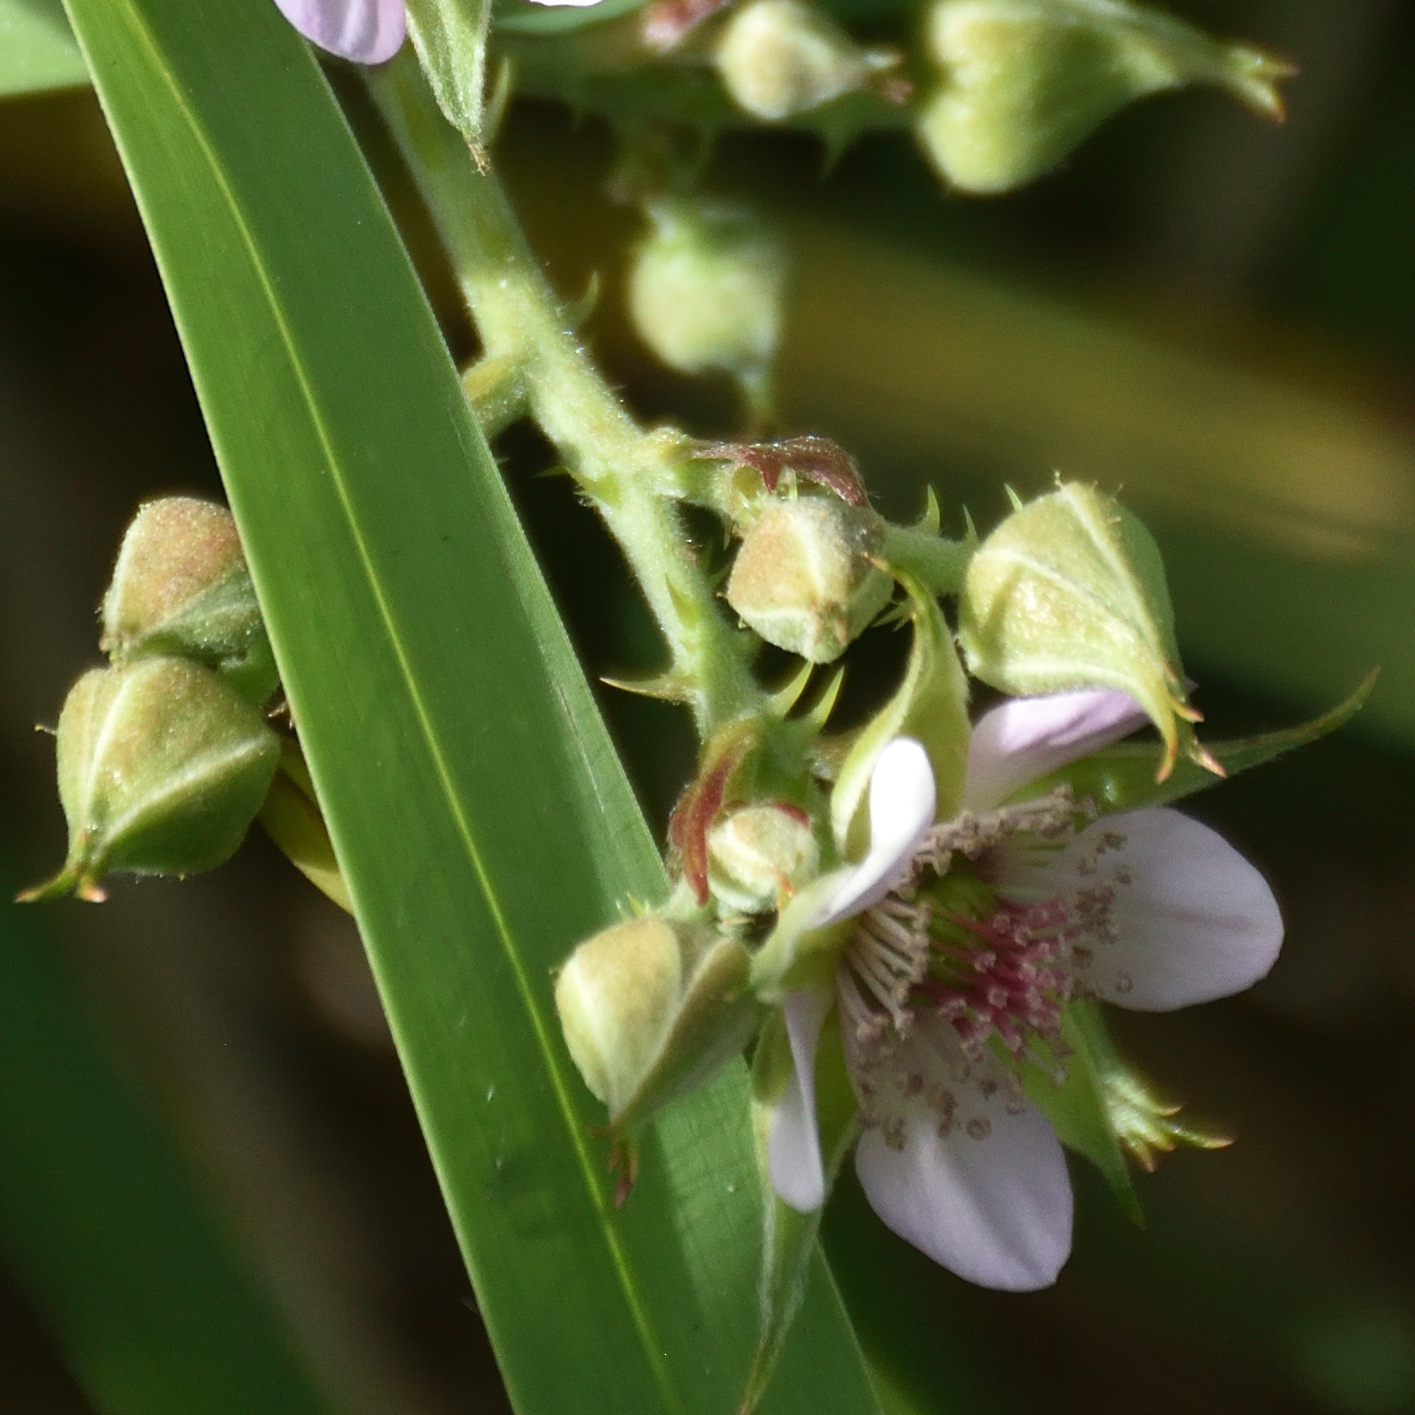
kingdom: Plantae
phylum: Tracheophyta
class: Magnoliopsida
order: Rosales
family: Rosaceae
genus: Rubus
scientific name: Rubus rigidus
